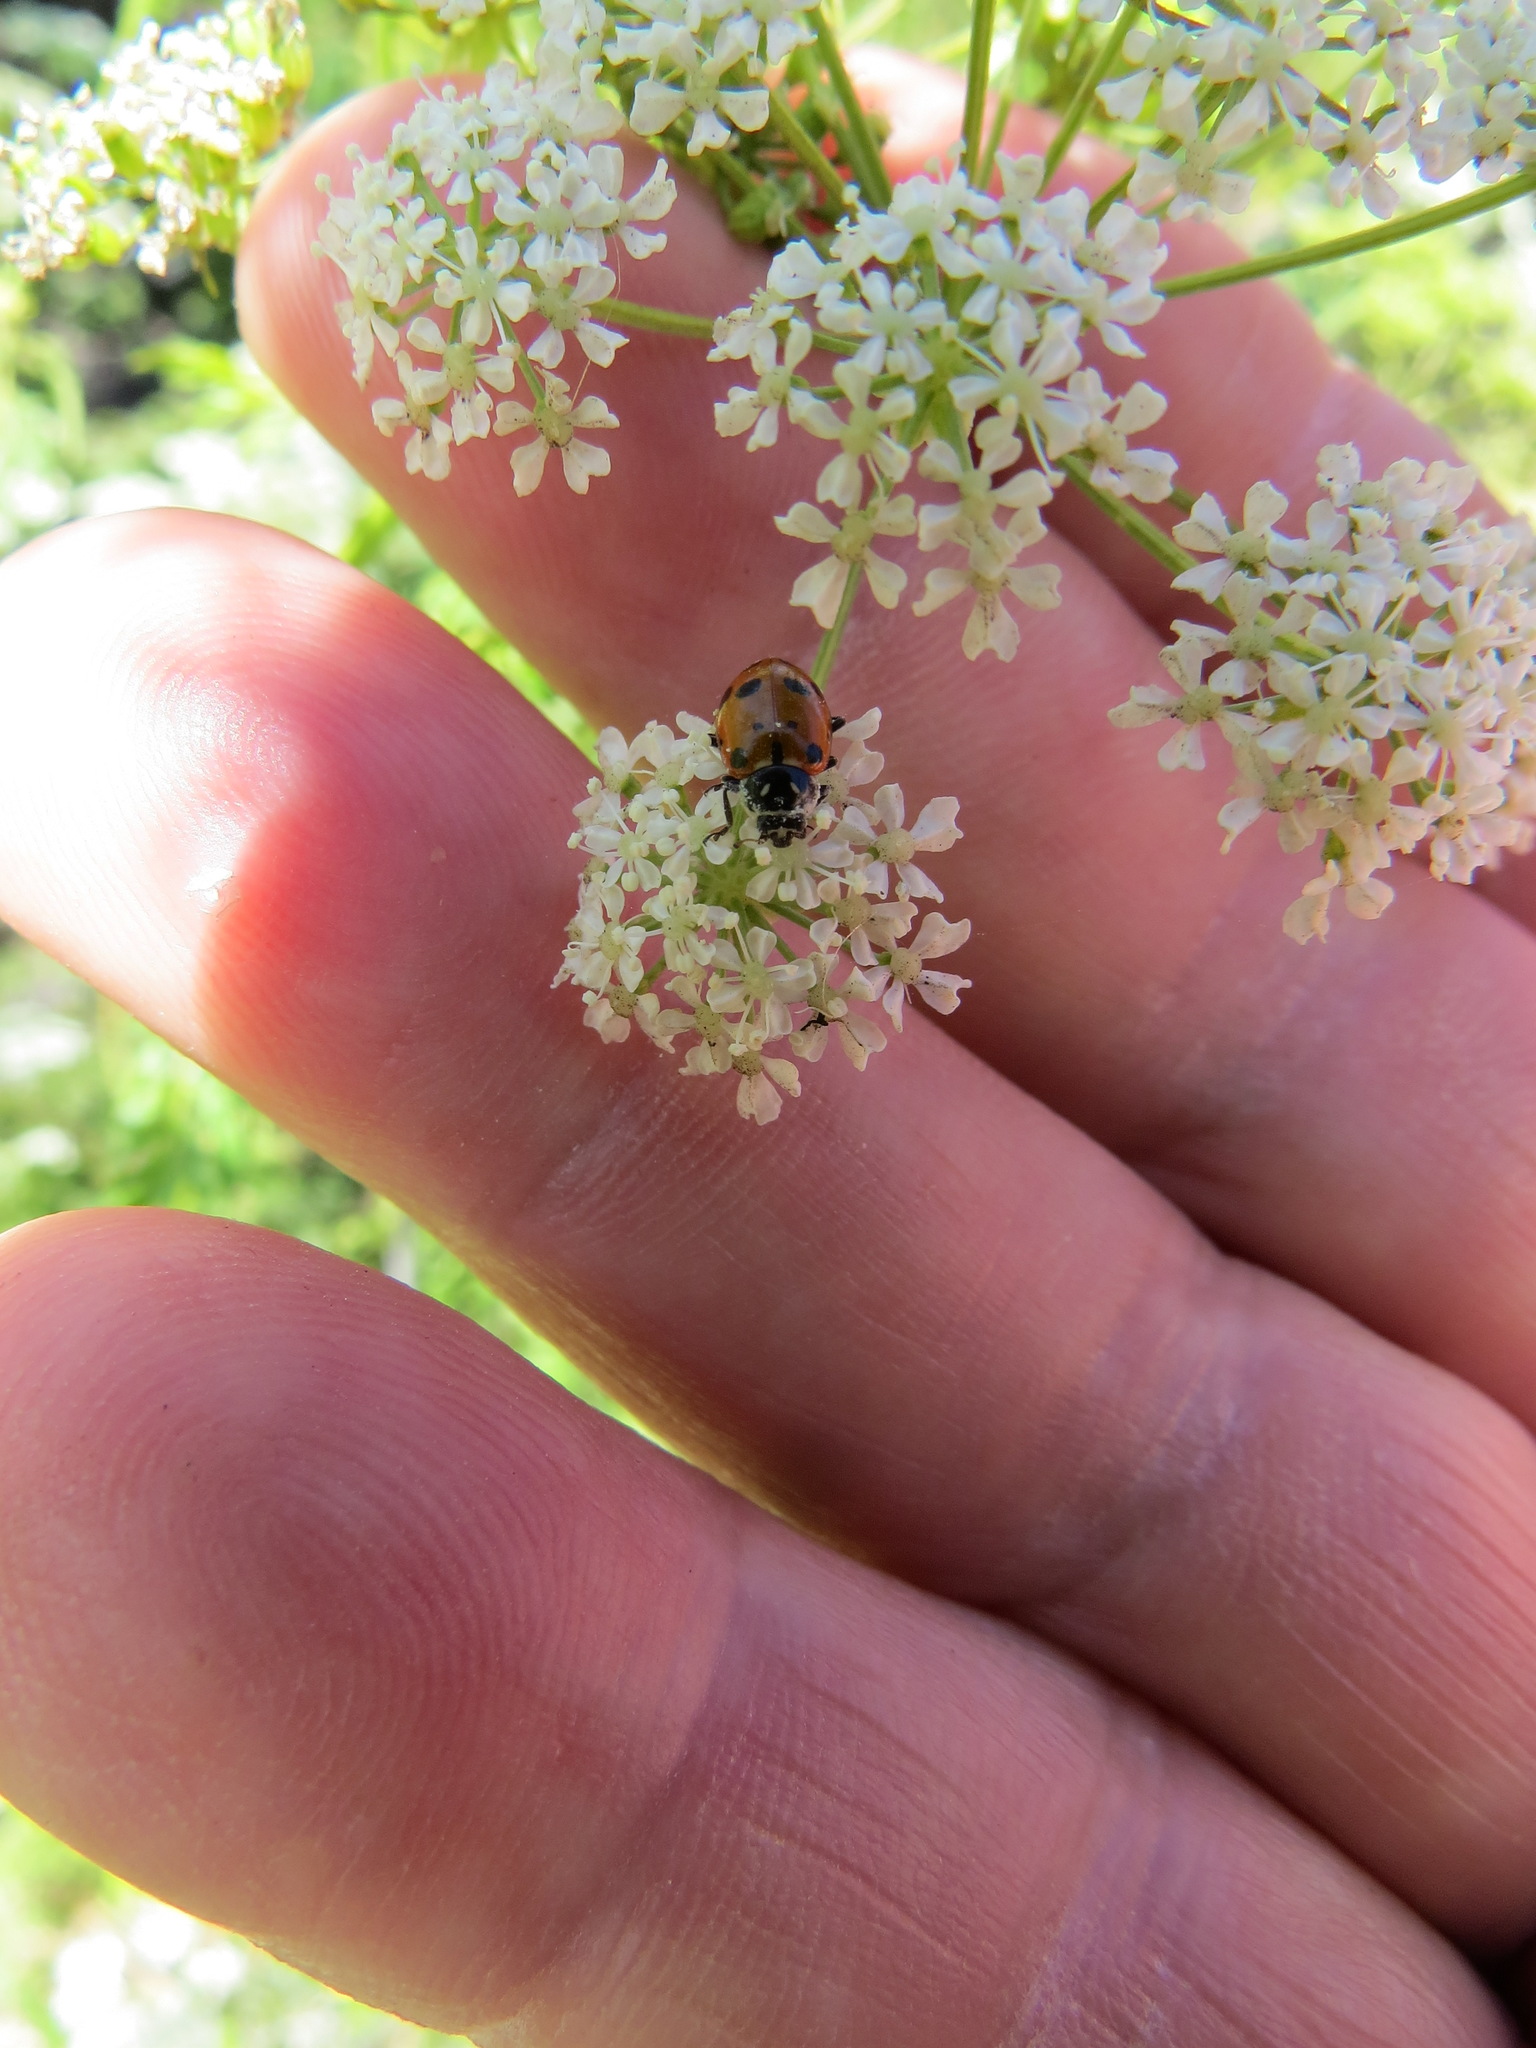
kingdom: Animalia
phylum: Arthropoda
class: Insecta
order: Coleoptera
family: Coccinellidae
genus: Hippodamia
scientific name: Hippodamia convergens
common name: Convergent lady beetle
